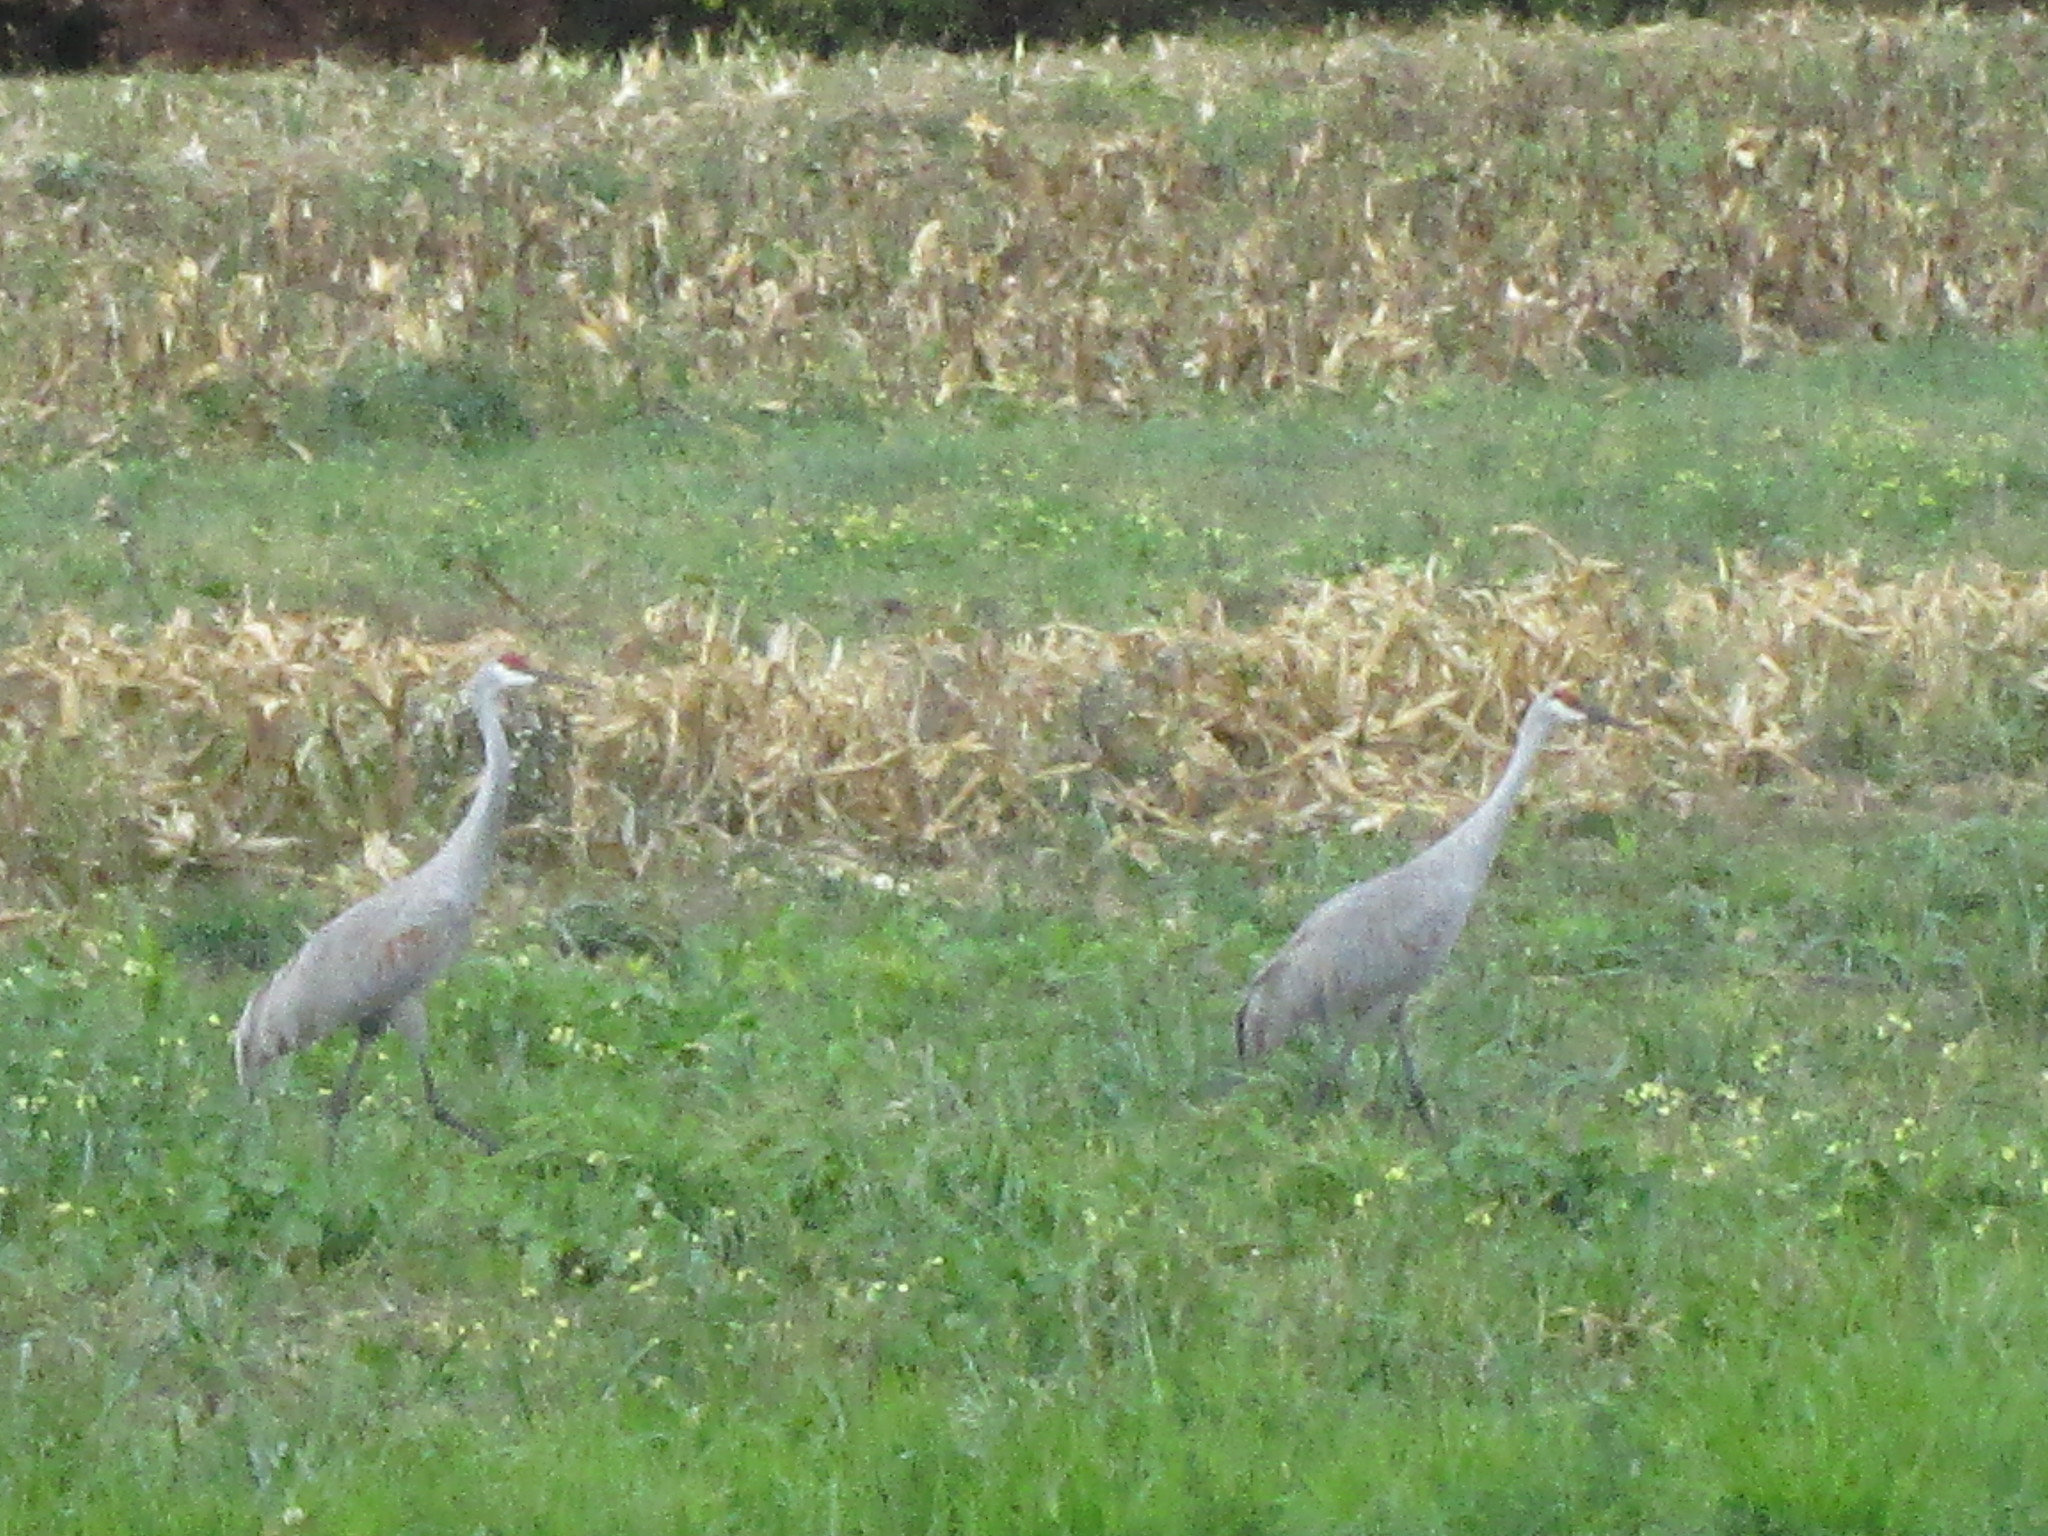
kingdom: Animalia
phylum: Chordata
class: Aves
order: Gruiformes
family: Gruidae
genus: Grus
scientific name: Grus canadensis
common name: Sandhill crane
